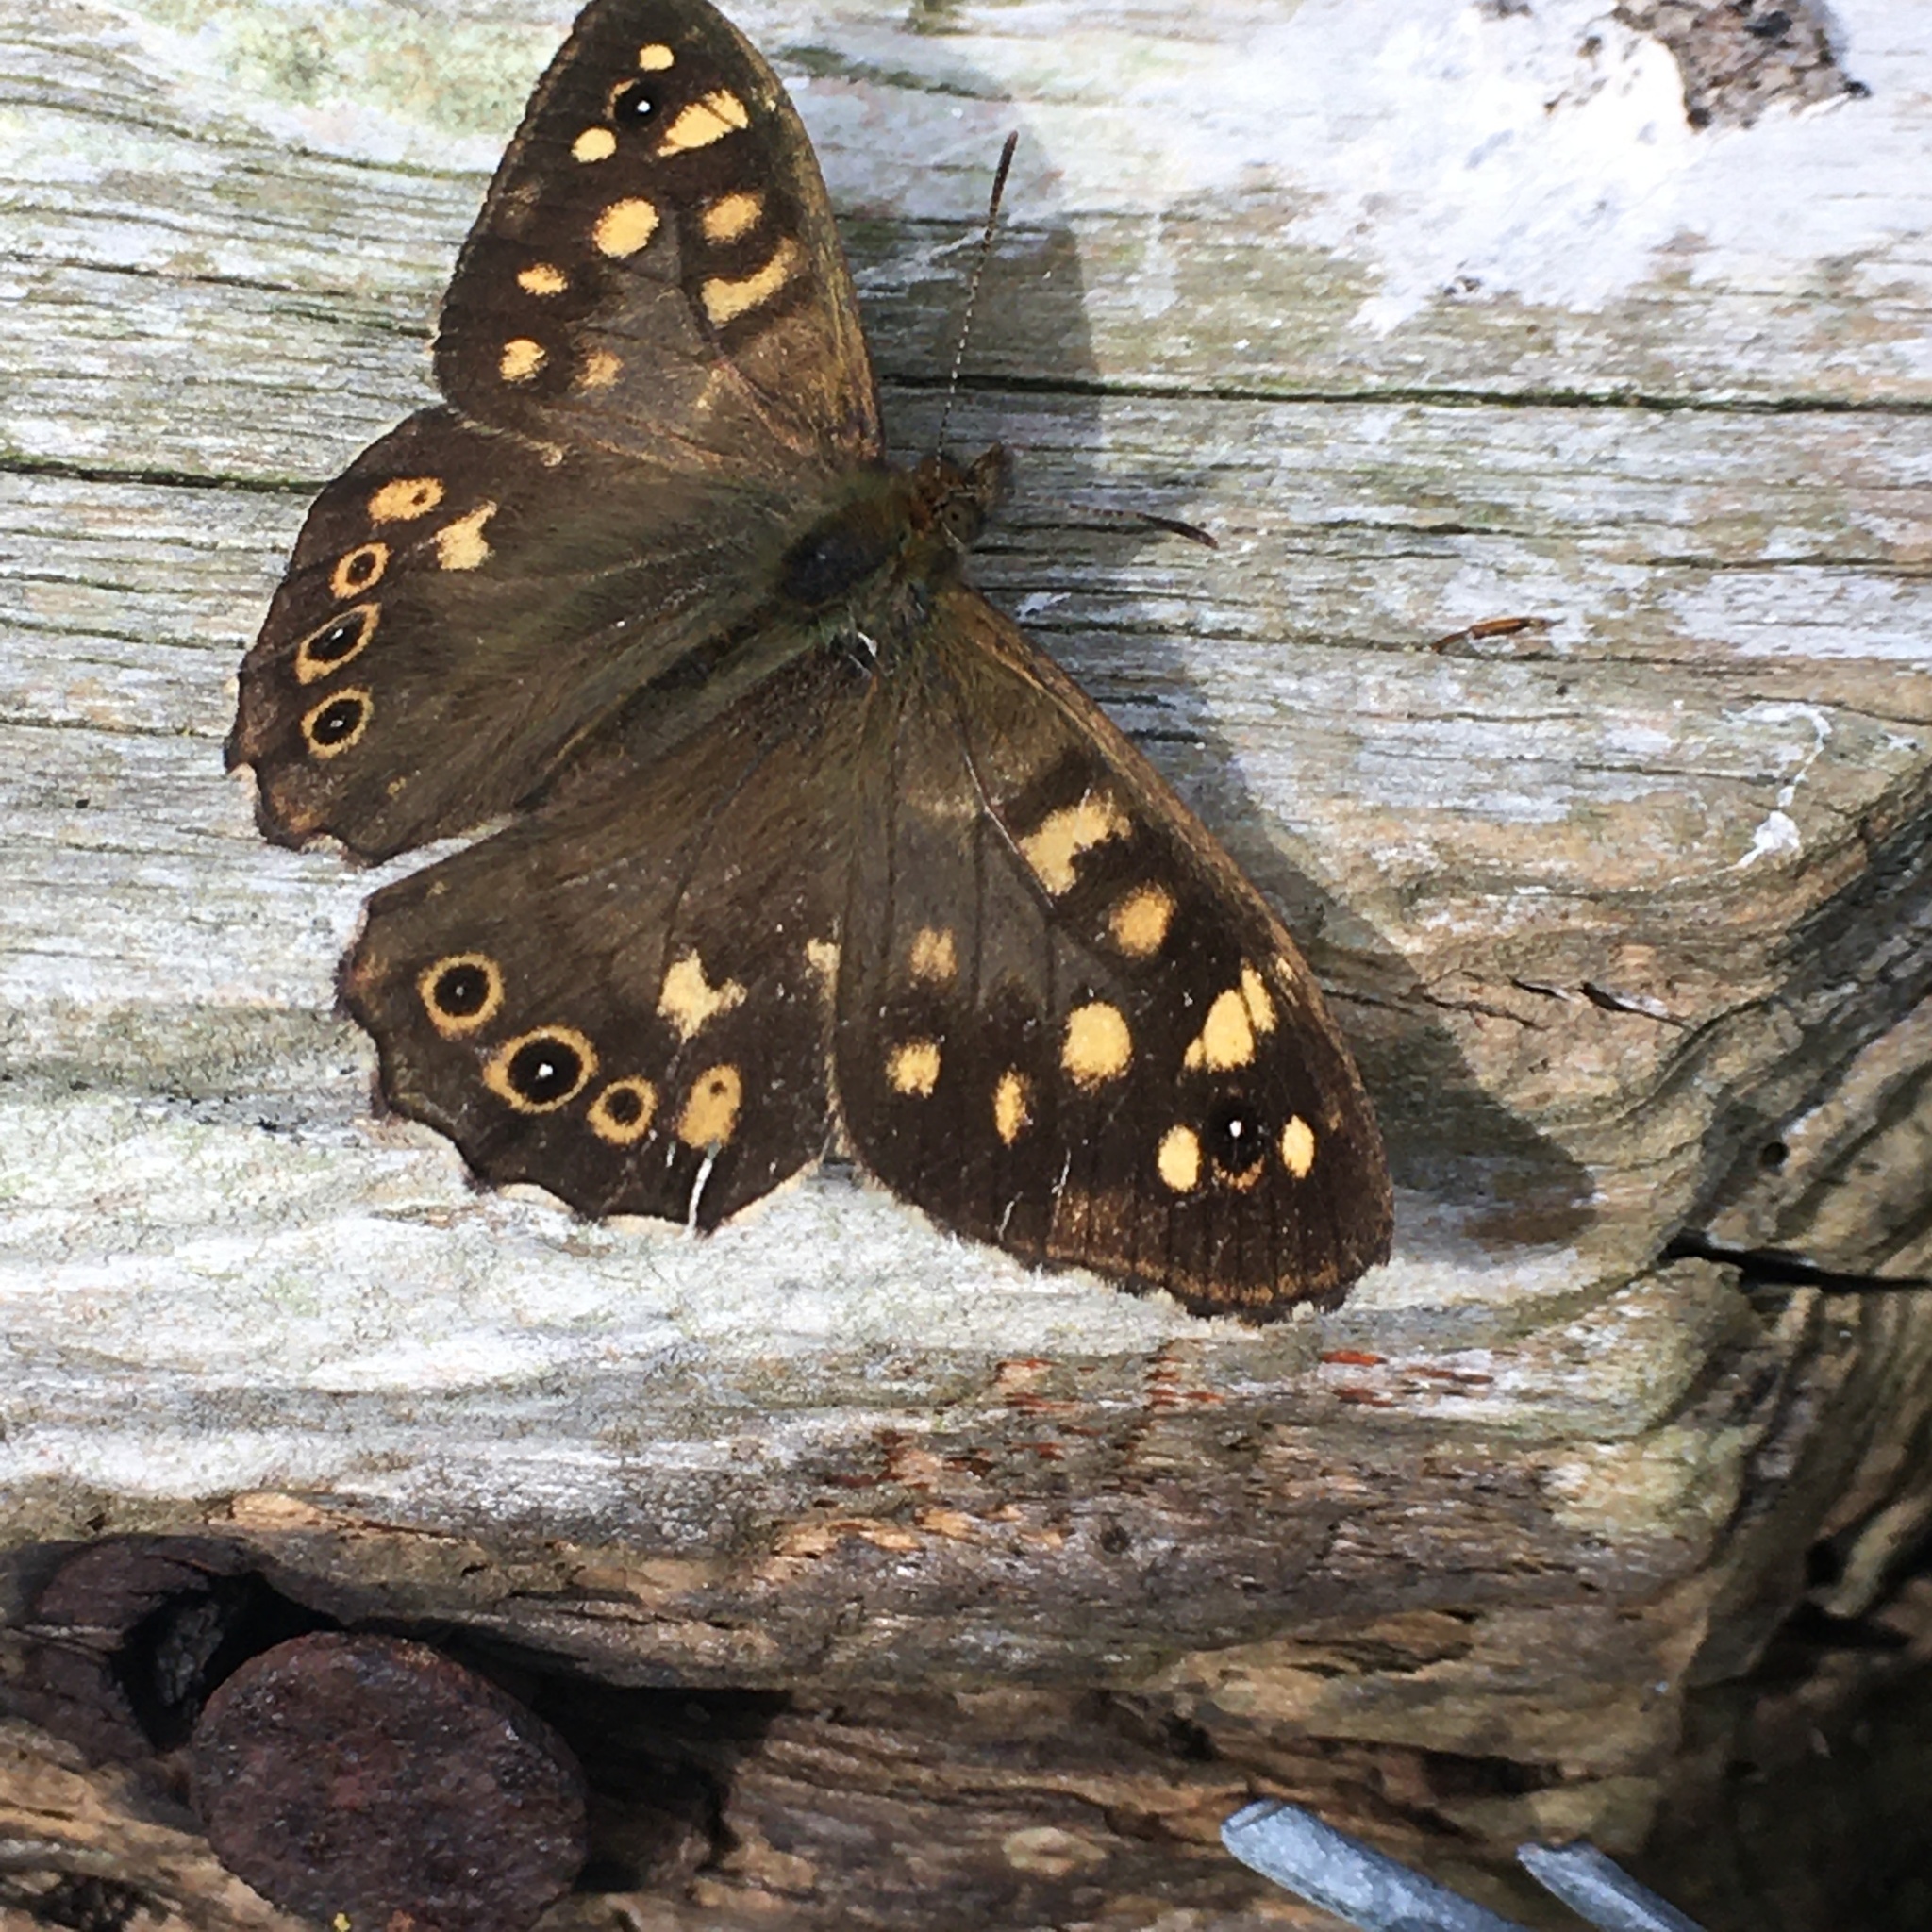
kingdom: Animalia
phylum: Arthropoda
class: Insecta
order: Lepidoptera
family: Nymphalidae
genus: Pararge
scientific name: Pararge aegeria
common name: Speckled wood
